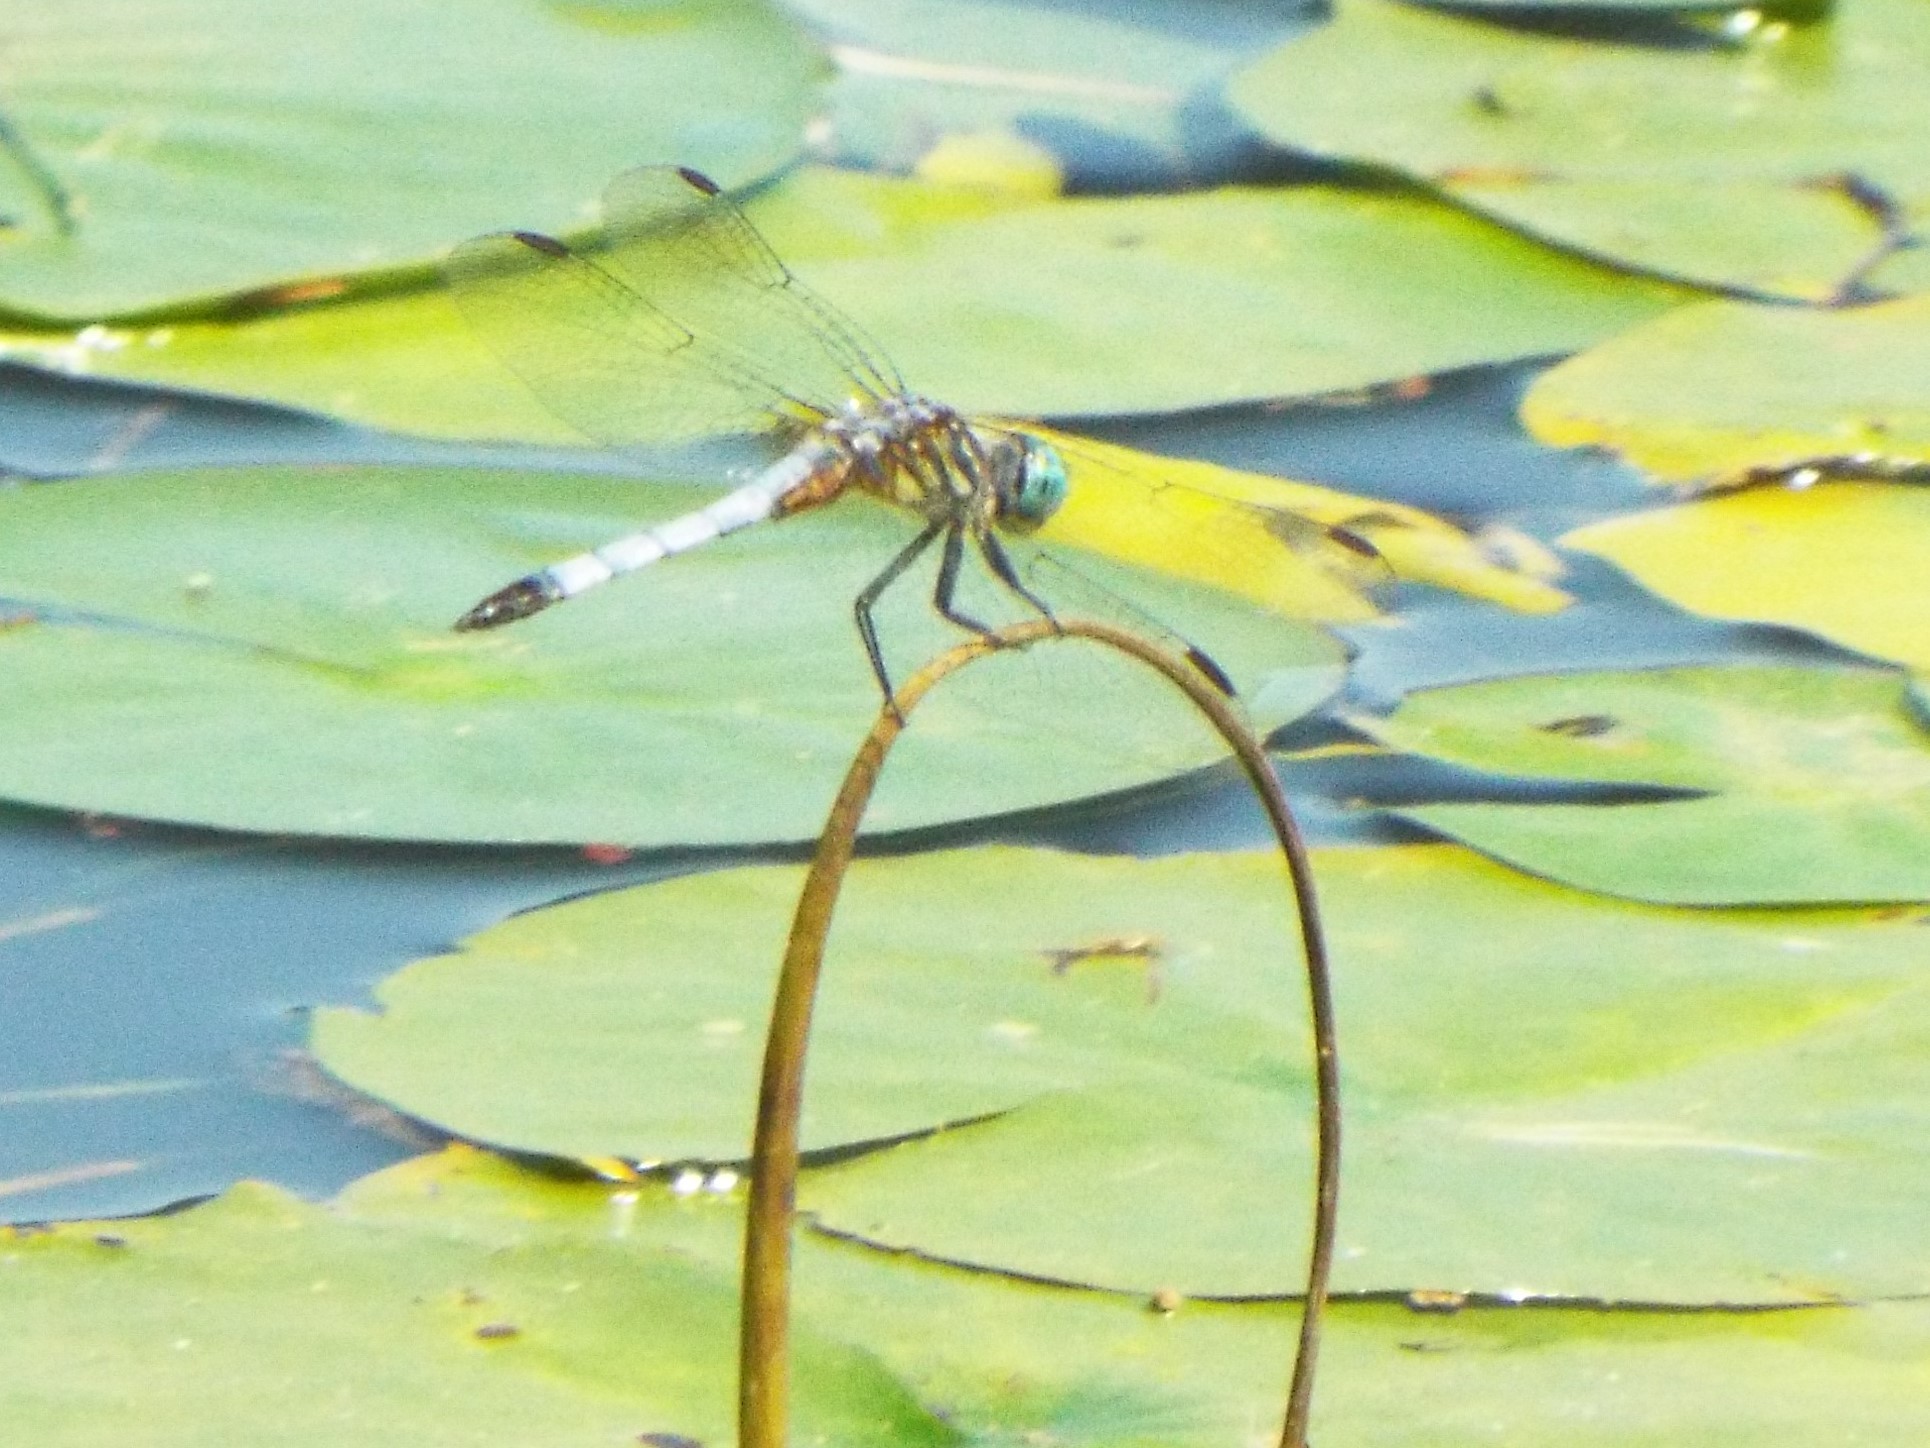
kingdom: Animalia
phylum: Arthropoda
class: Insecta
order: Odonata
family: Libellulidae
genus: Pachydiplax
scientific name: Pachydiplax longipennis
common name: Blue dasher
